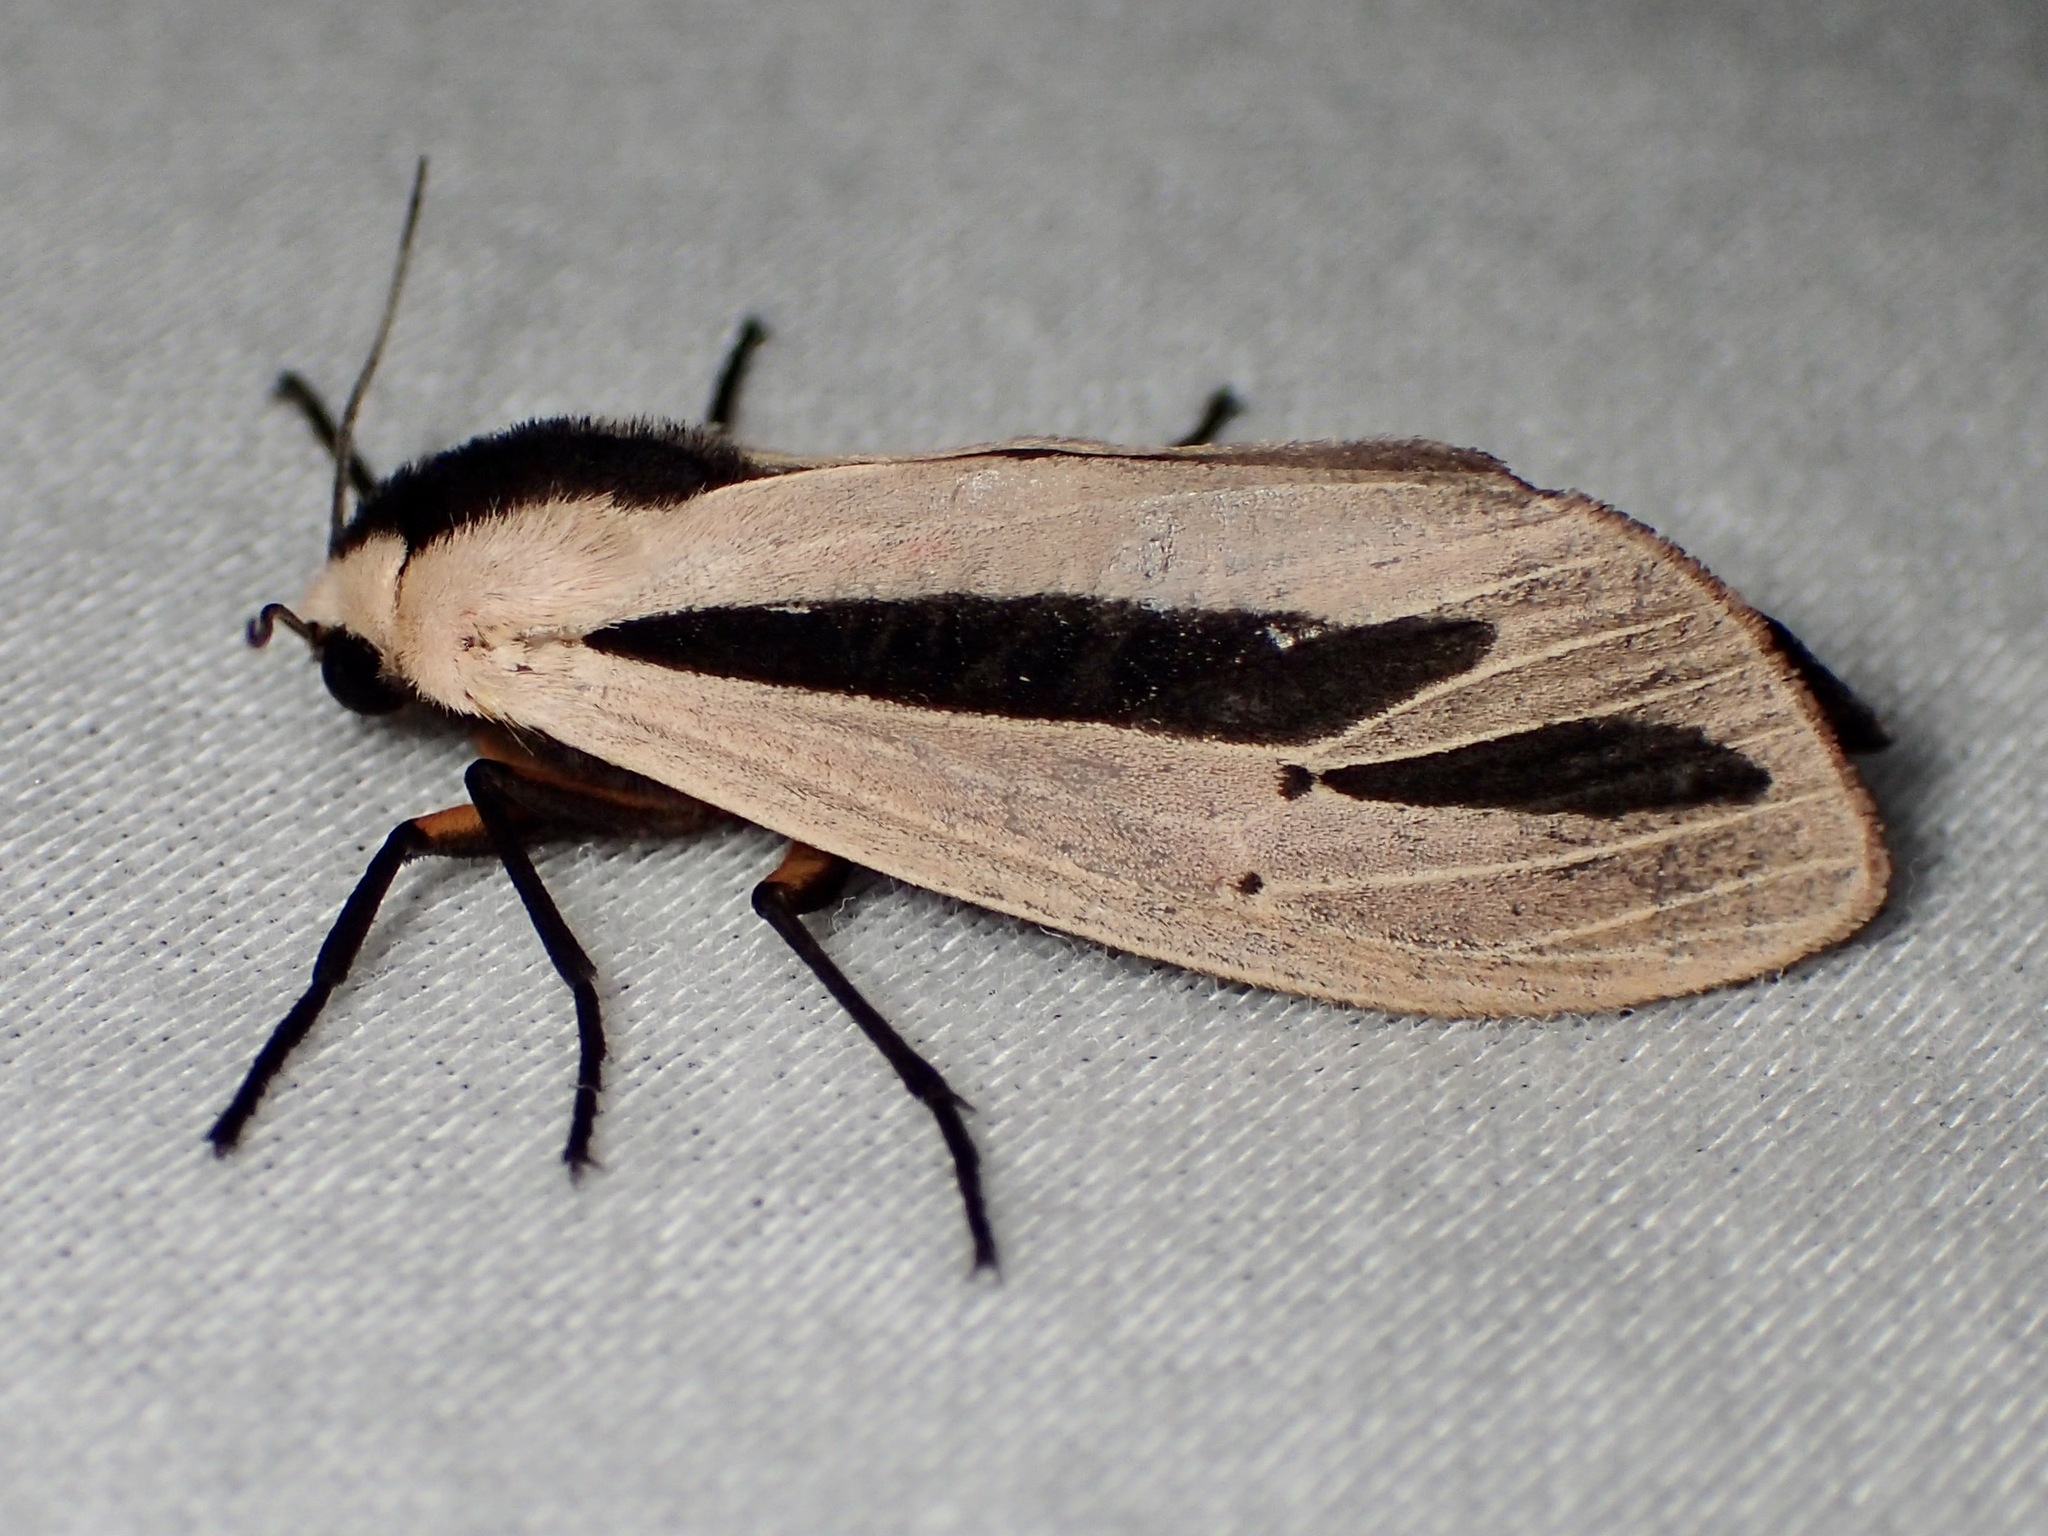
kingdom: Animalia
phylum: Arthropoda
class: Insecta
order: Lepidoptera
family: Erebidae
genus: Creatonotos
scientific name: Creatonotos gangis
